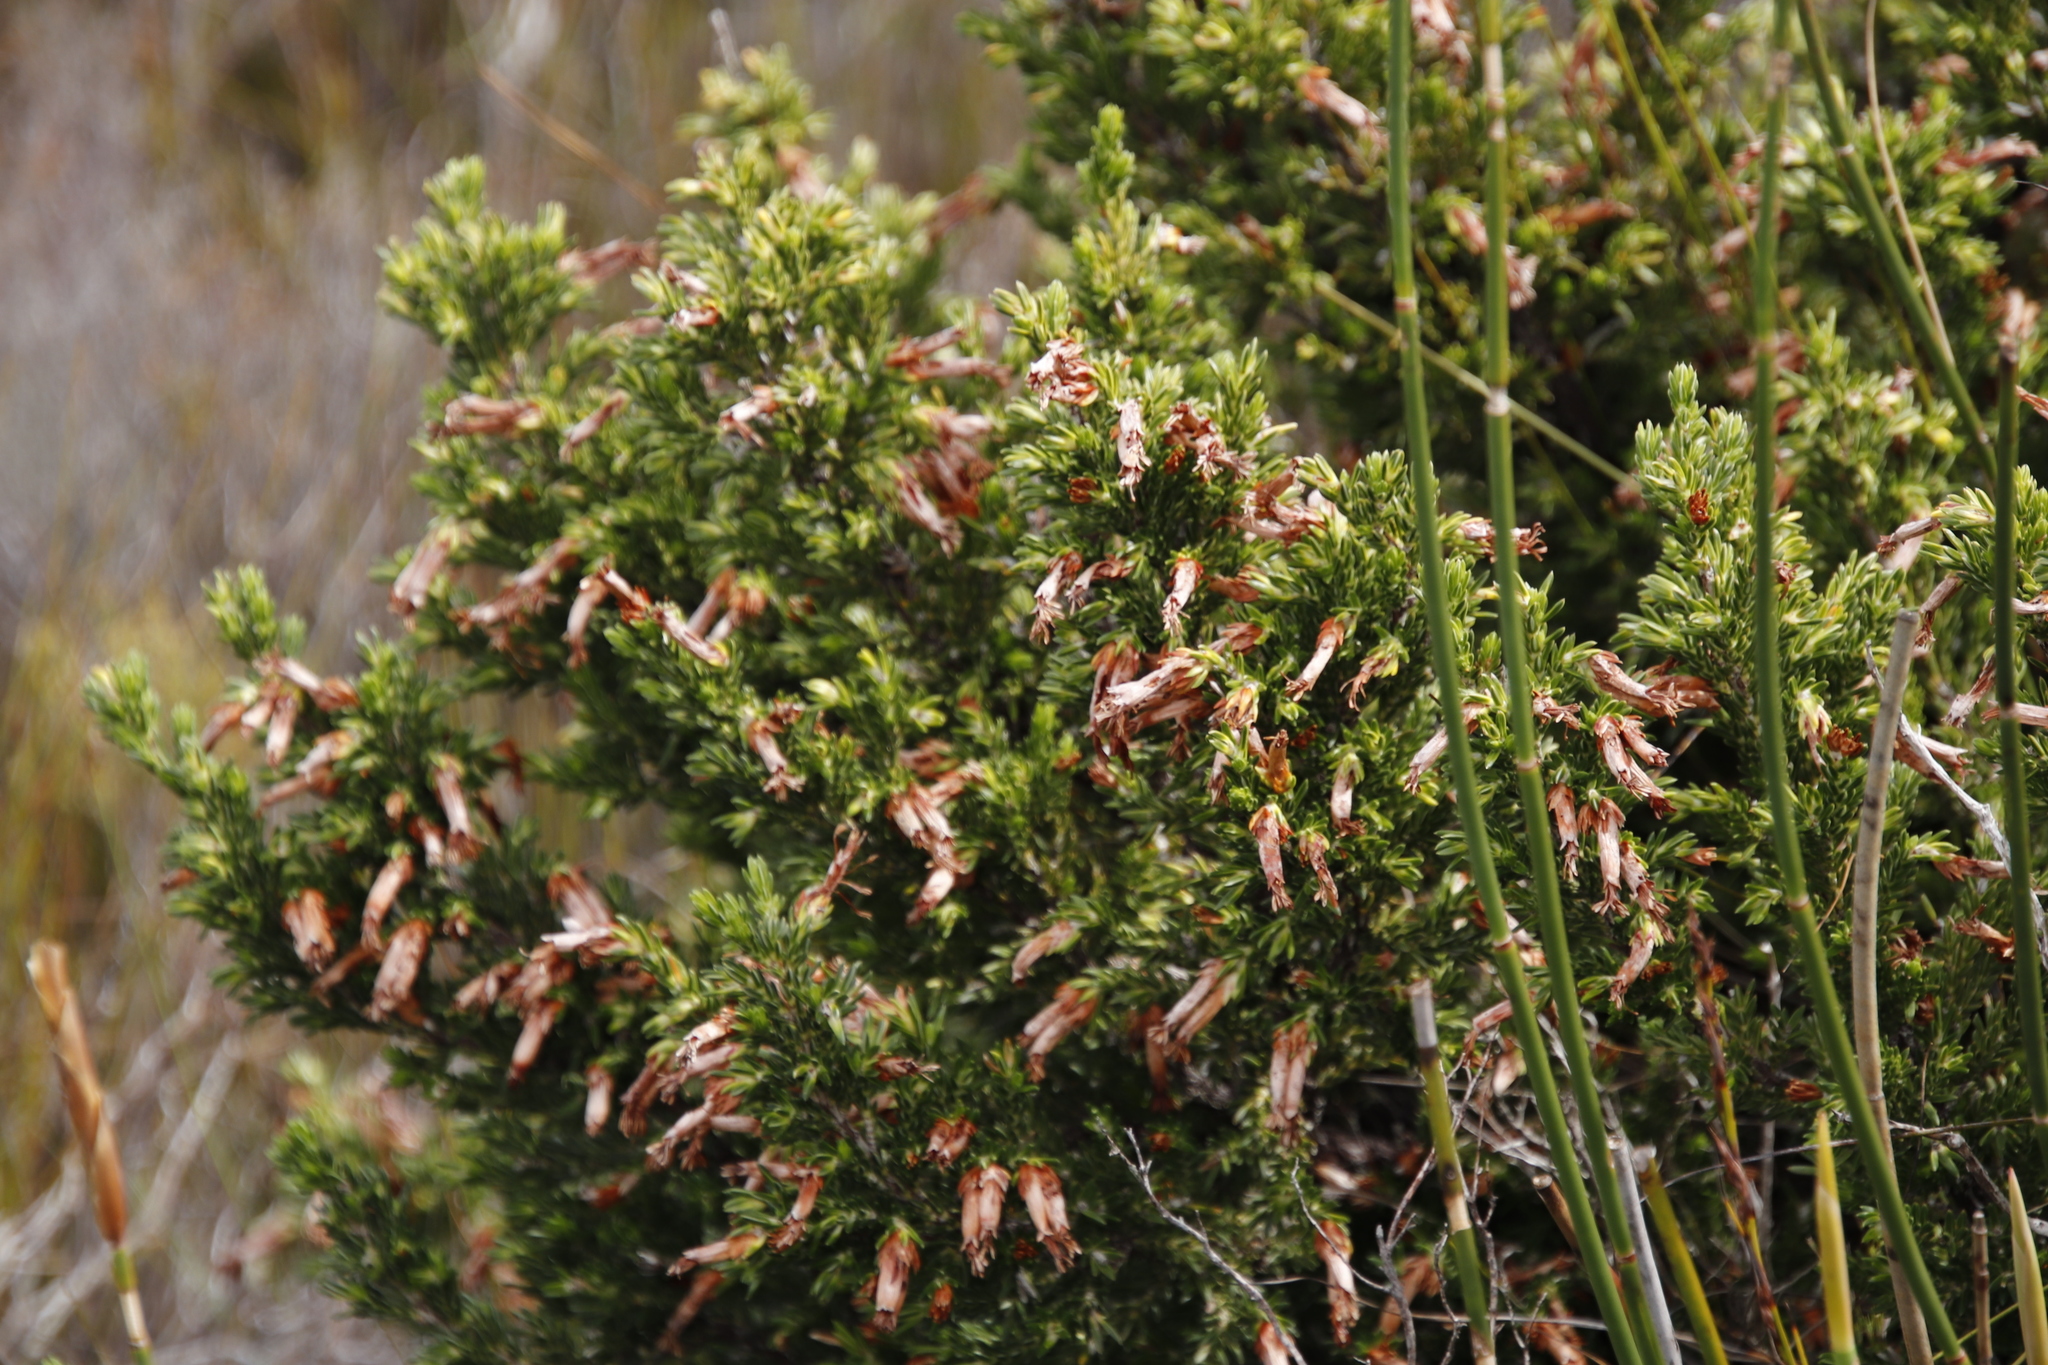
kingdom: Plantae
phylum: Tracheophyta
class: Magnoliopsida
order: Ericales
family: Ericaceae
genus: Erica
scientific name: Erica banksia
